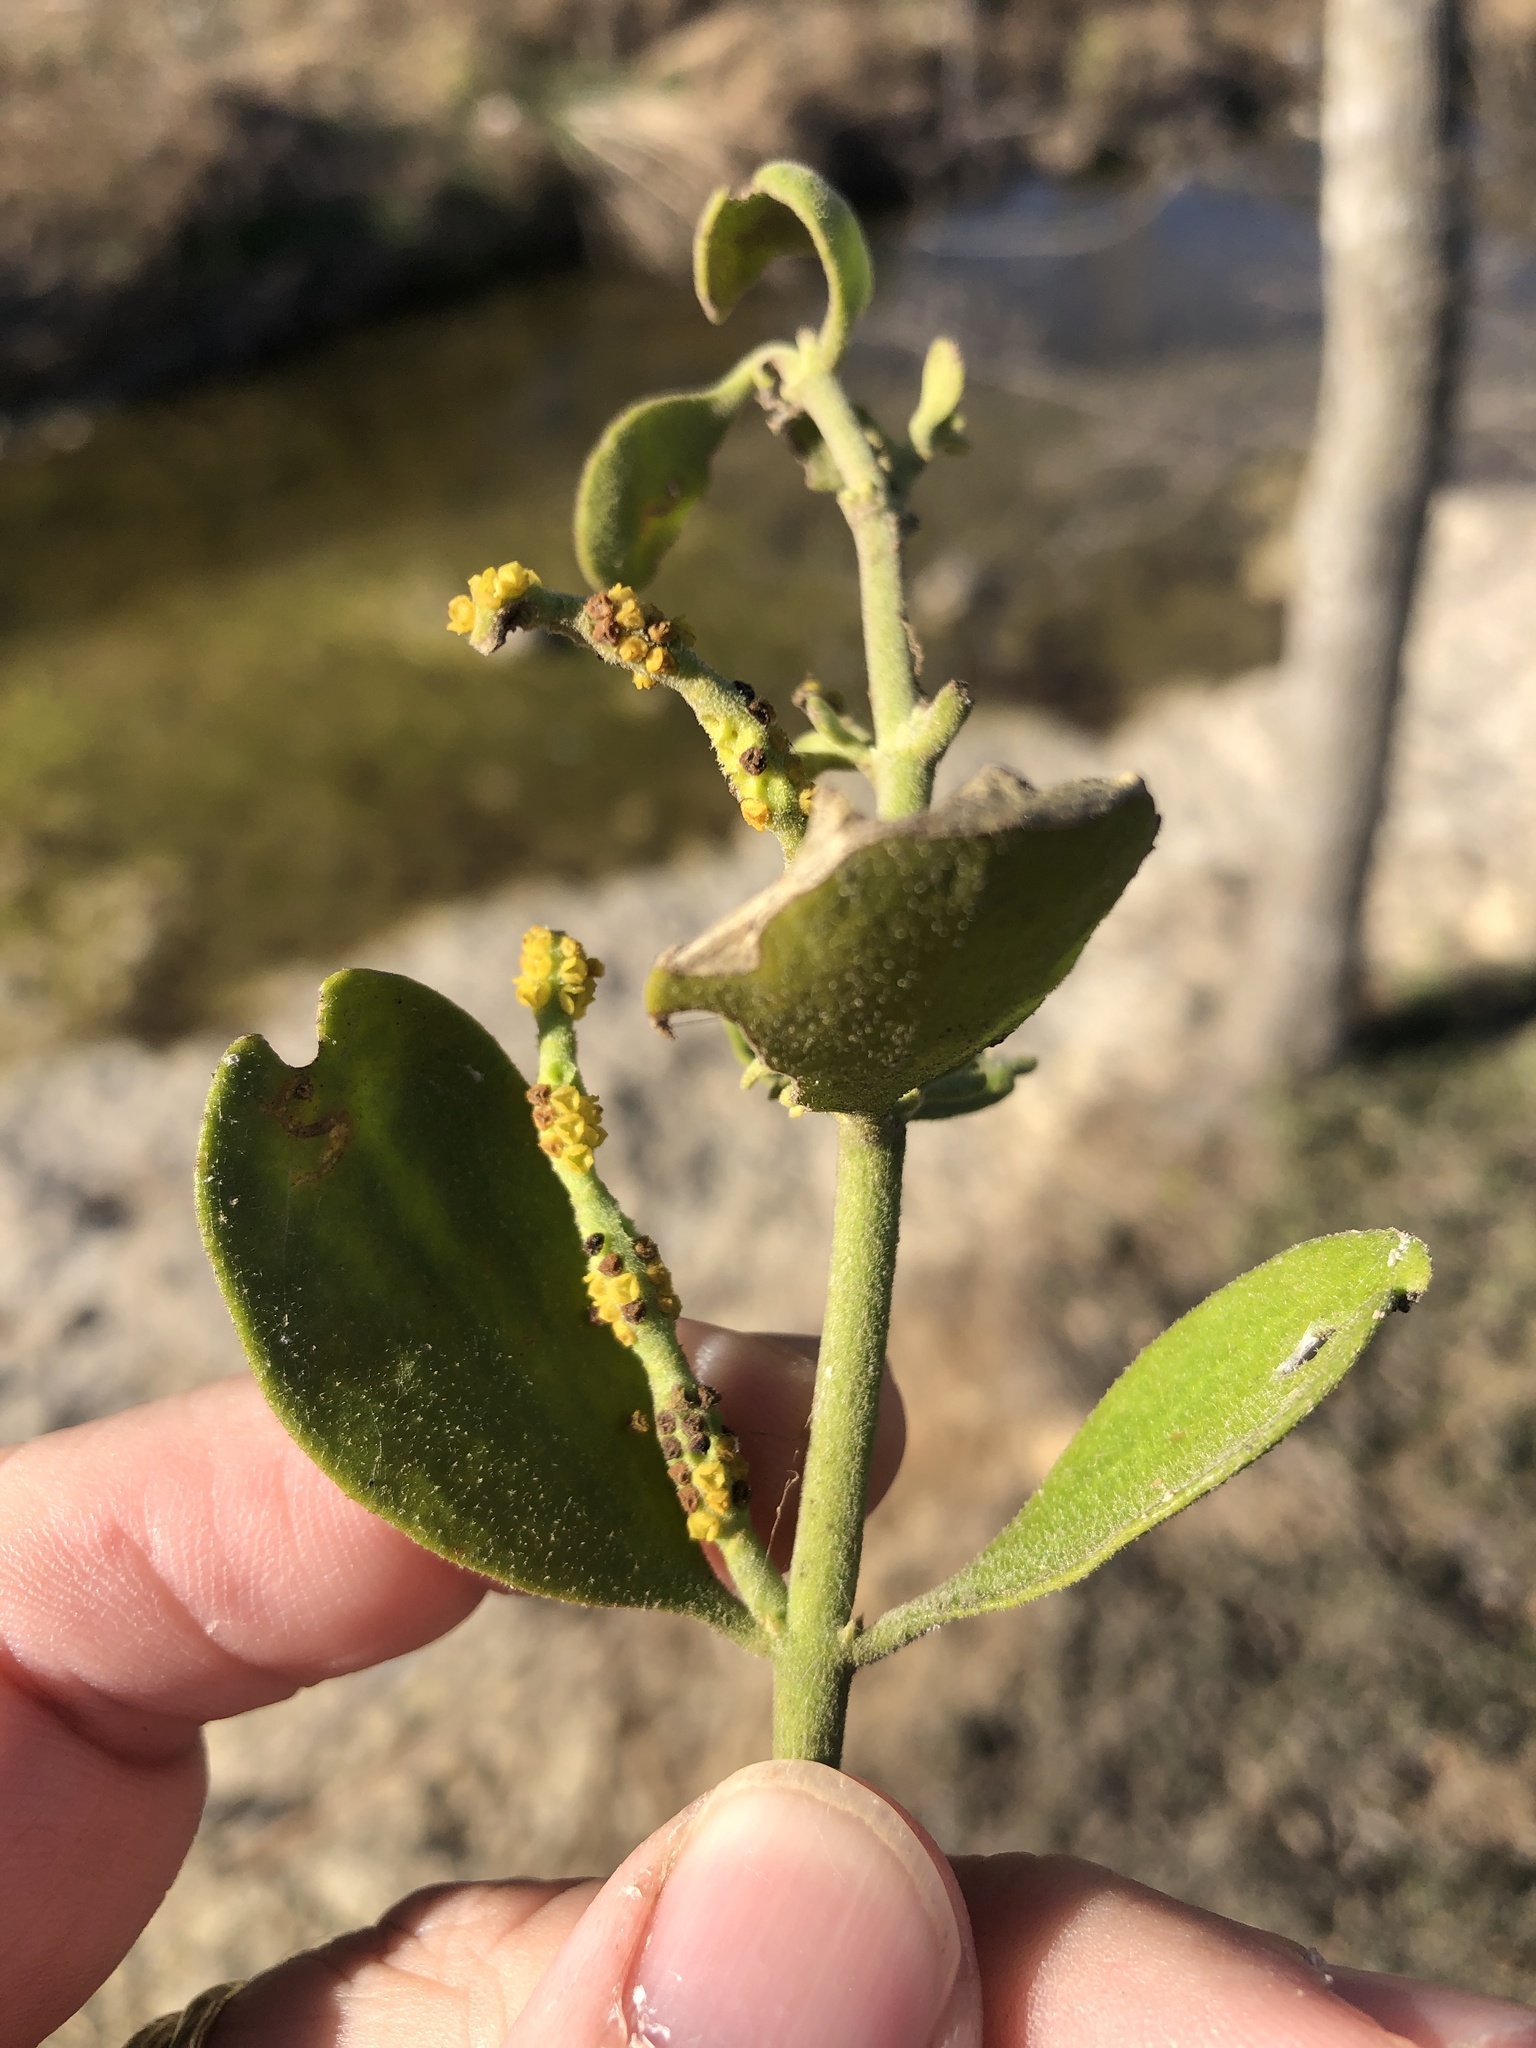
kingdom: Plantae
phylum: Tracheophyta
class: Magnoliopsida
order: Santalales
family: Viscaceae
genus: Phoradendron
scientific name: Phoradendron leucarpum
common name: Pacific mistletoe
